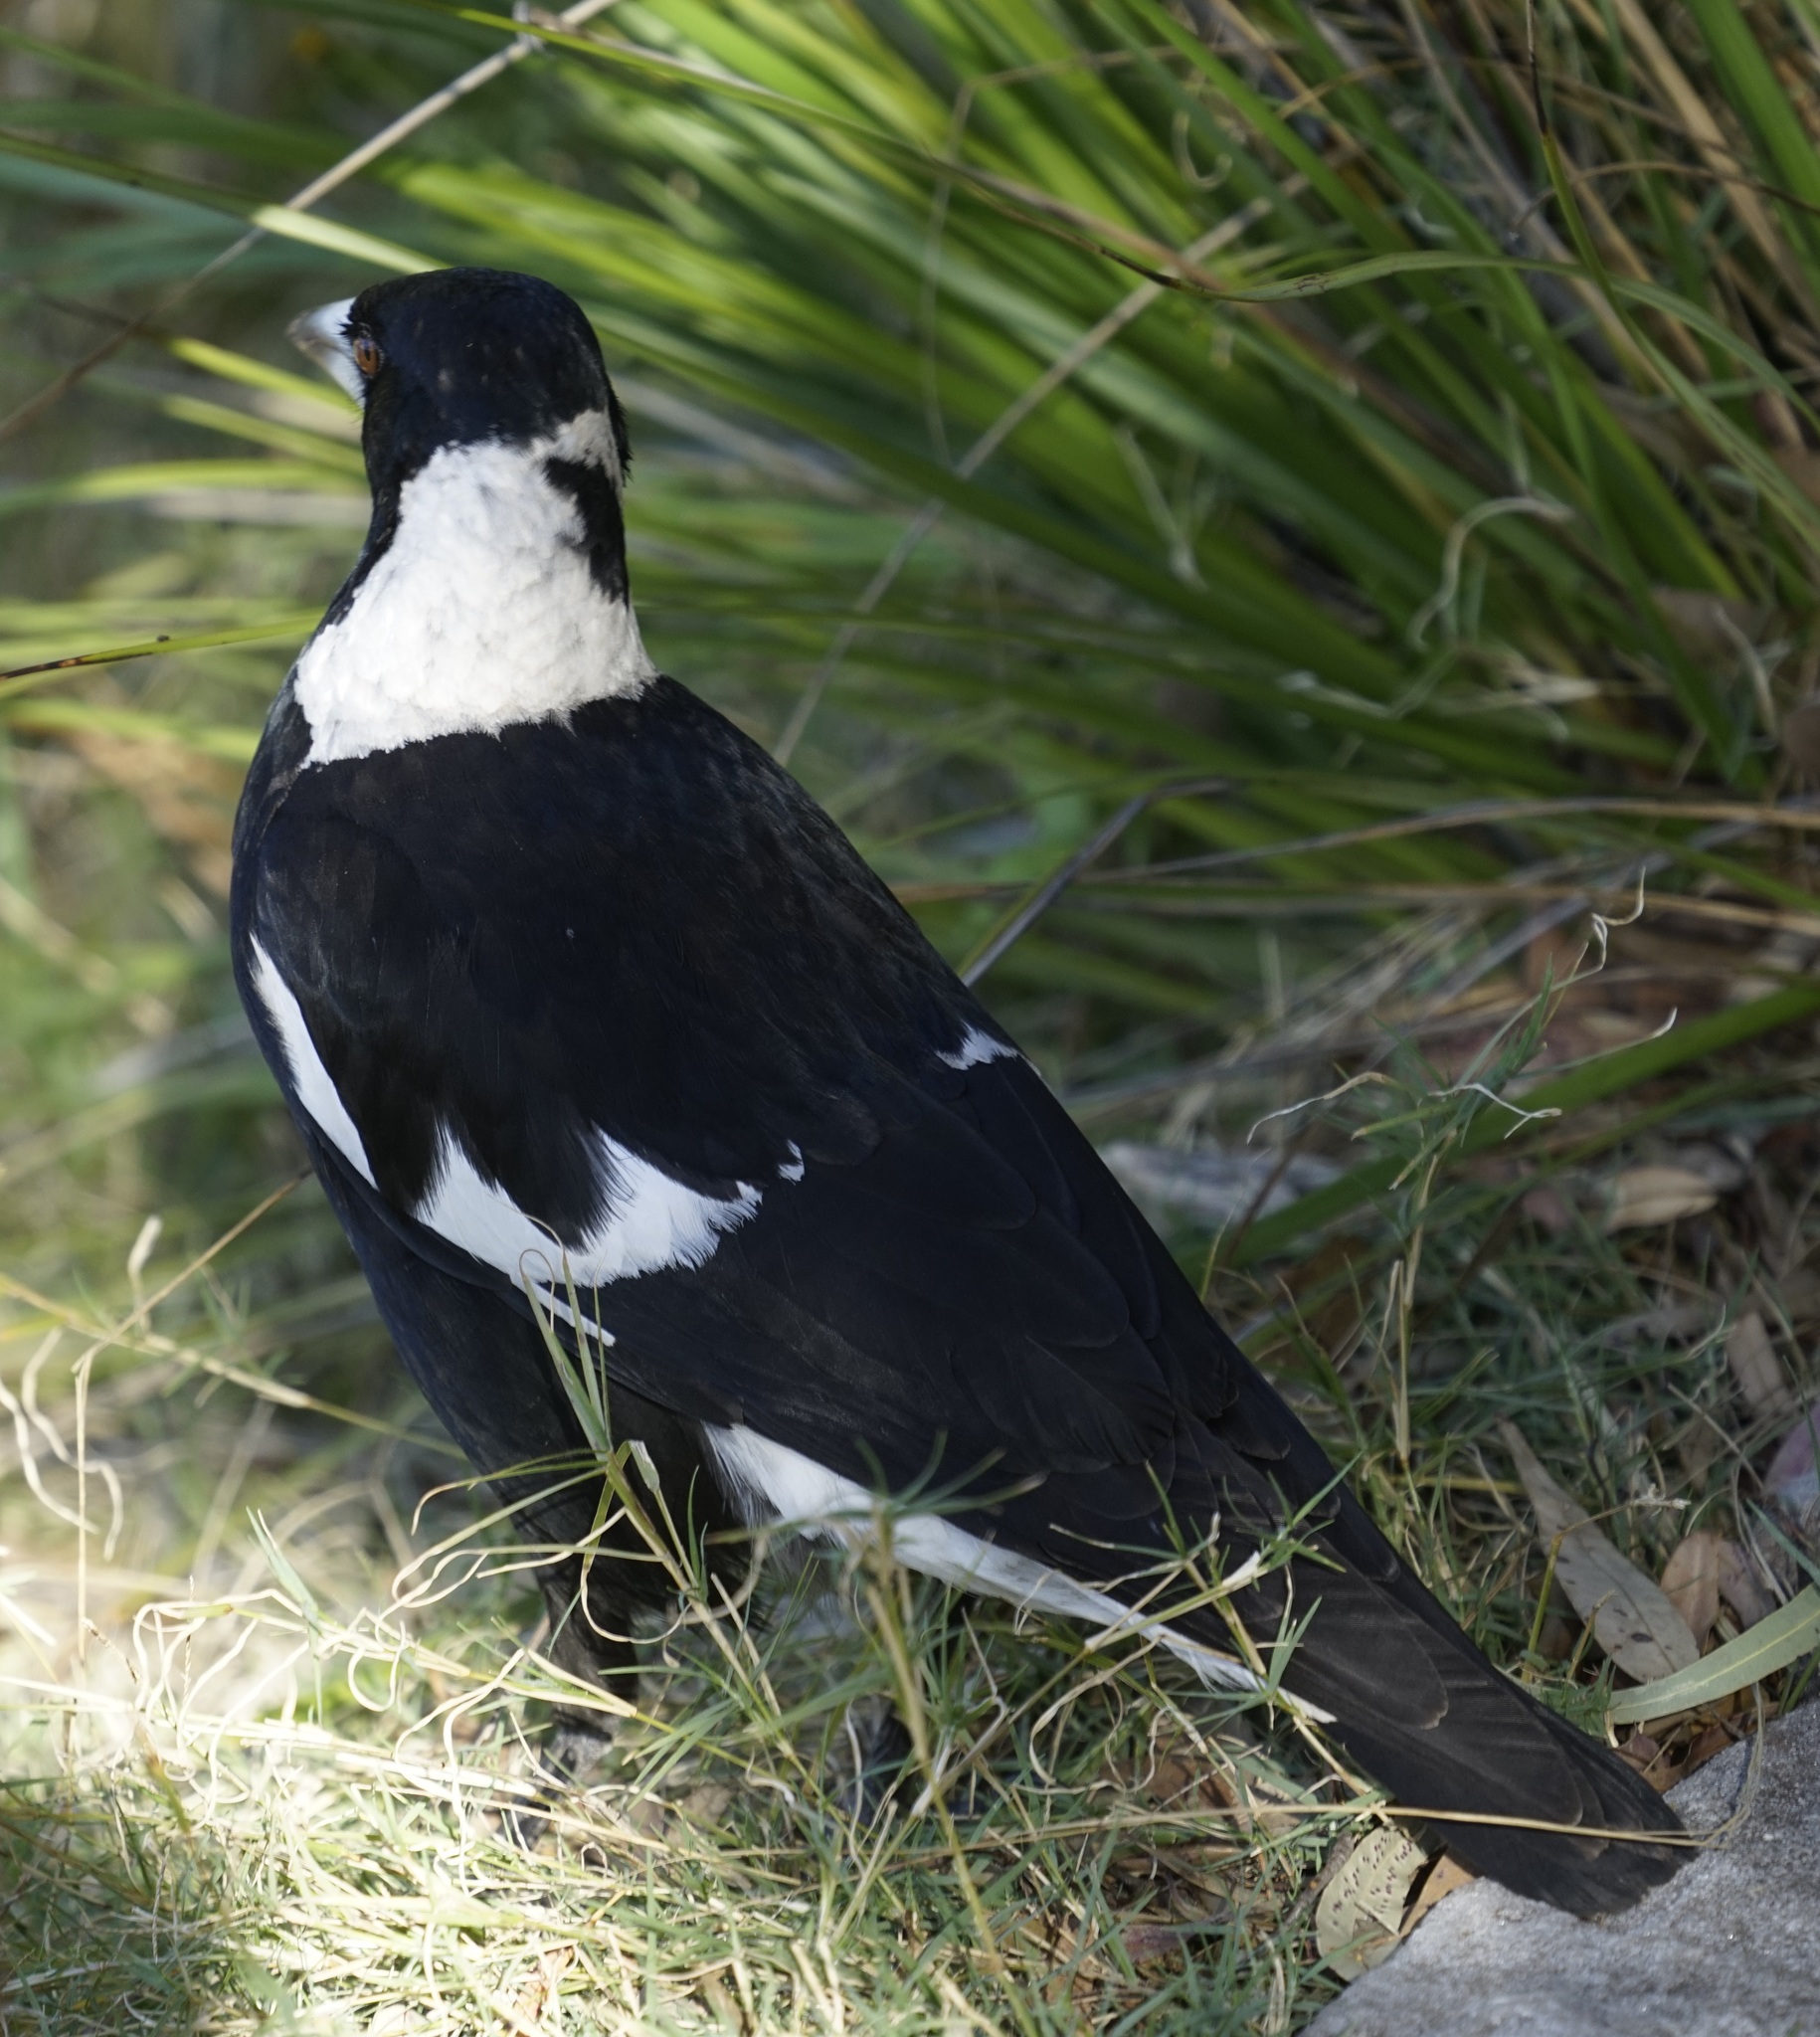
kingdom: Animalia
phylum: Chordata
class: Aves
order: Passeriformes
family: Cracticidae
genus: Gymnorhina
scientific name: Gymnorhina tibicen
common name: Australian magpie
